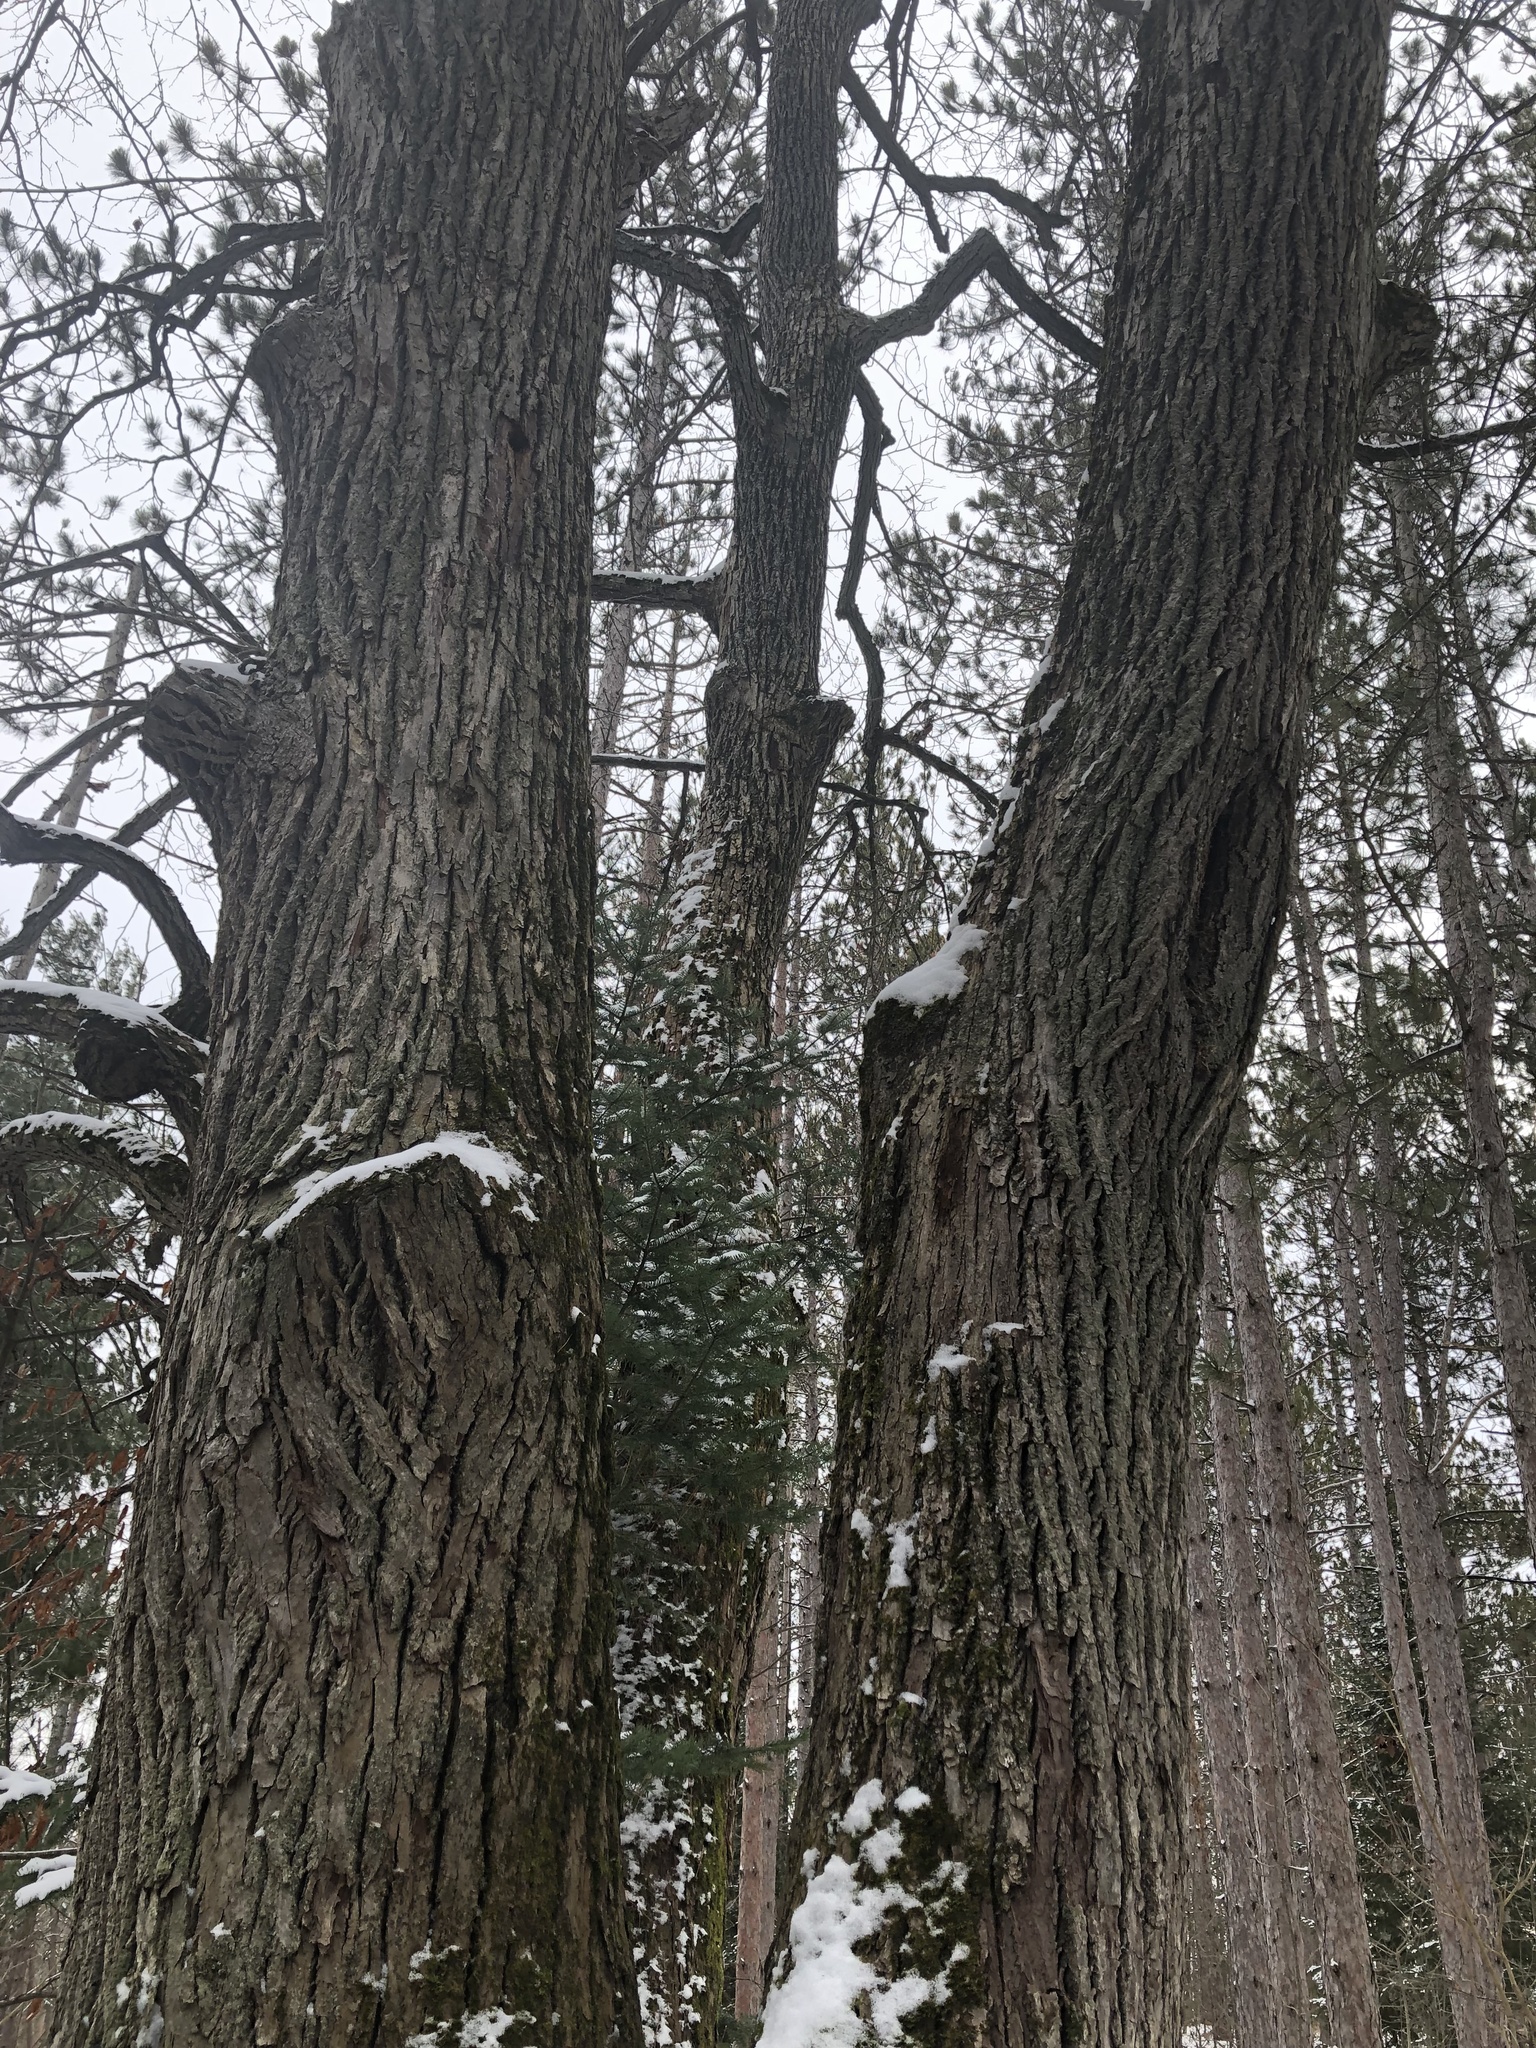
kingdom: Plantae
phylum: Tracheophyta
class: Magnoliopsida
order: Fagales
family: Juglandaceae
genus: Juglans
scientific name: Juglans cinerea
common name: Butternut
